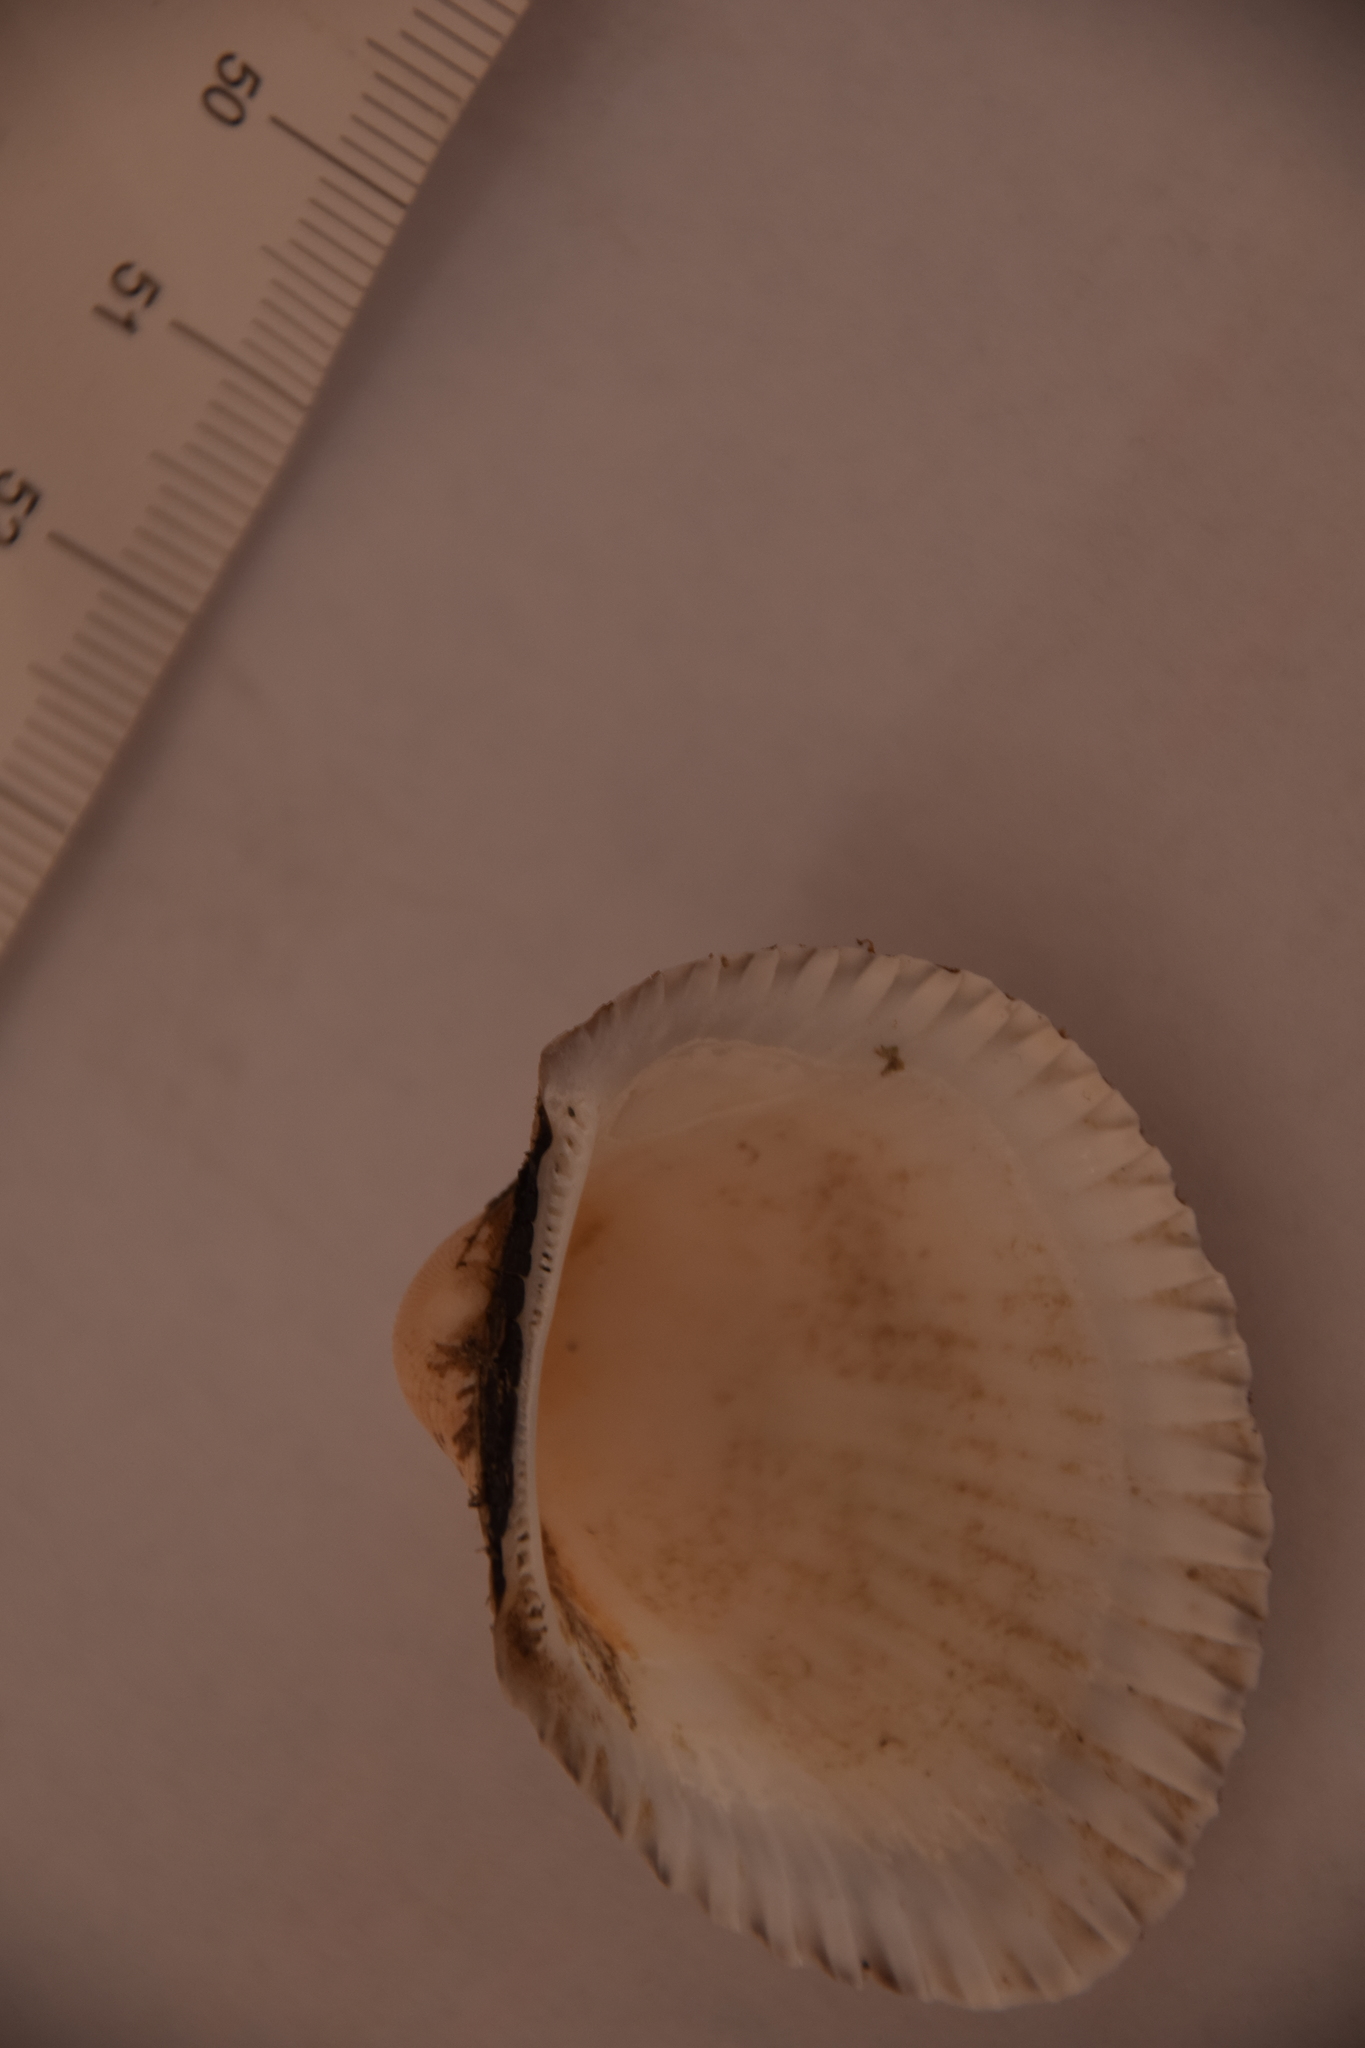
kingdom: Animalia
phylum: Mollusca
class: Bivalvia
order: Arcida
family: Arcidae
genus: Anadara
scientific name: Anadara kagoshimensis
